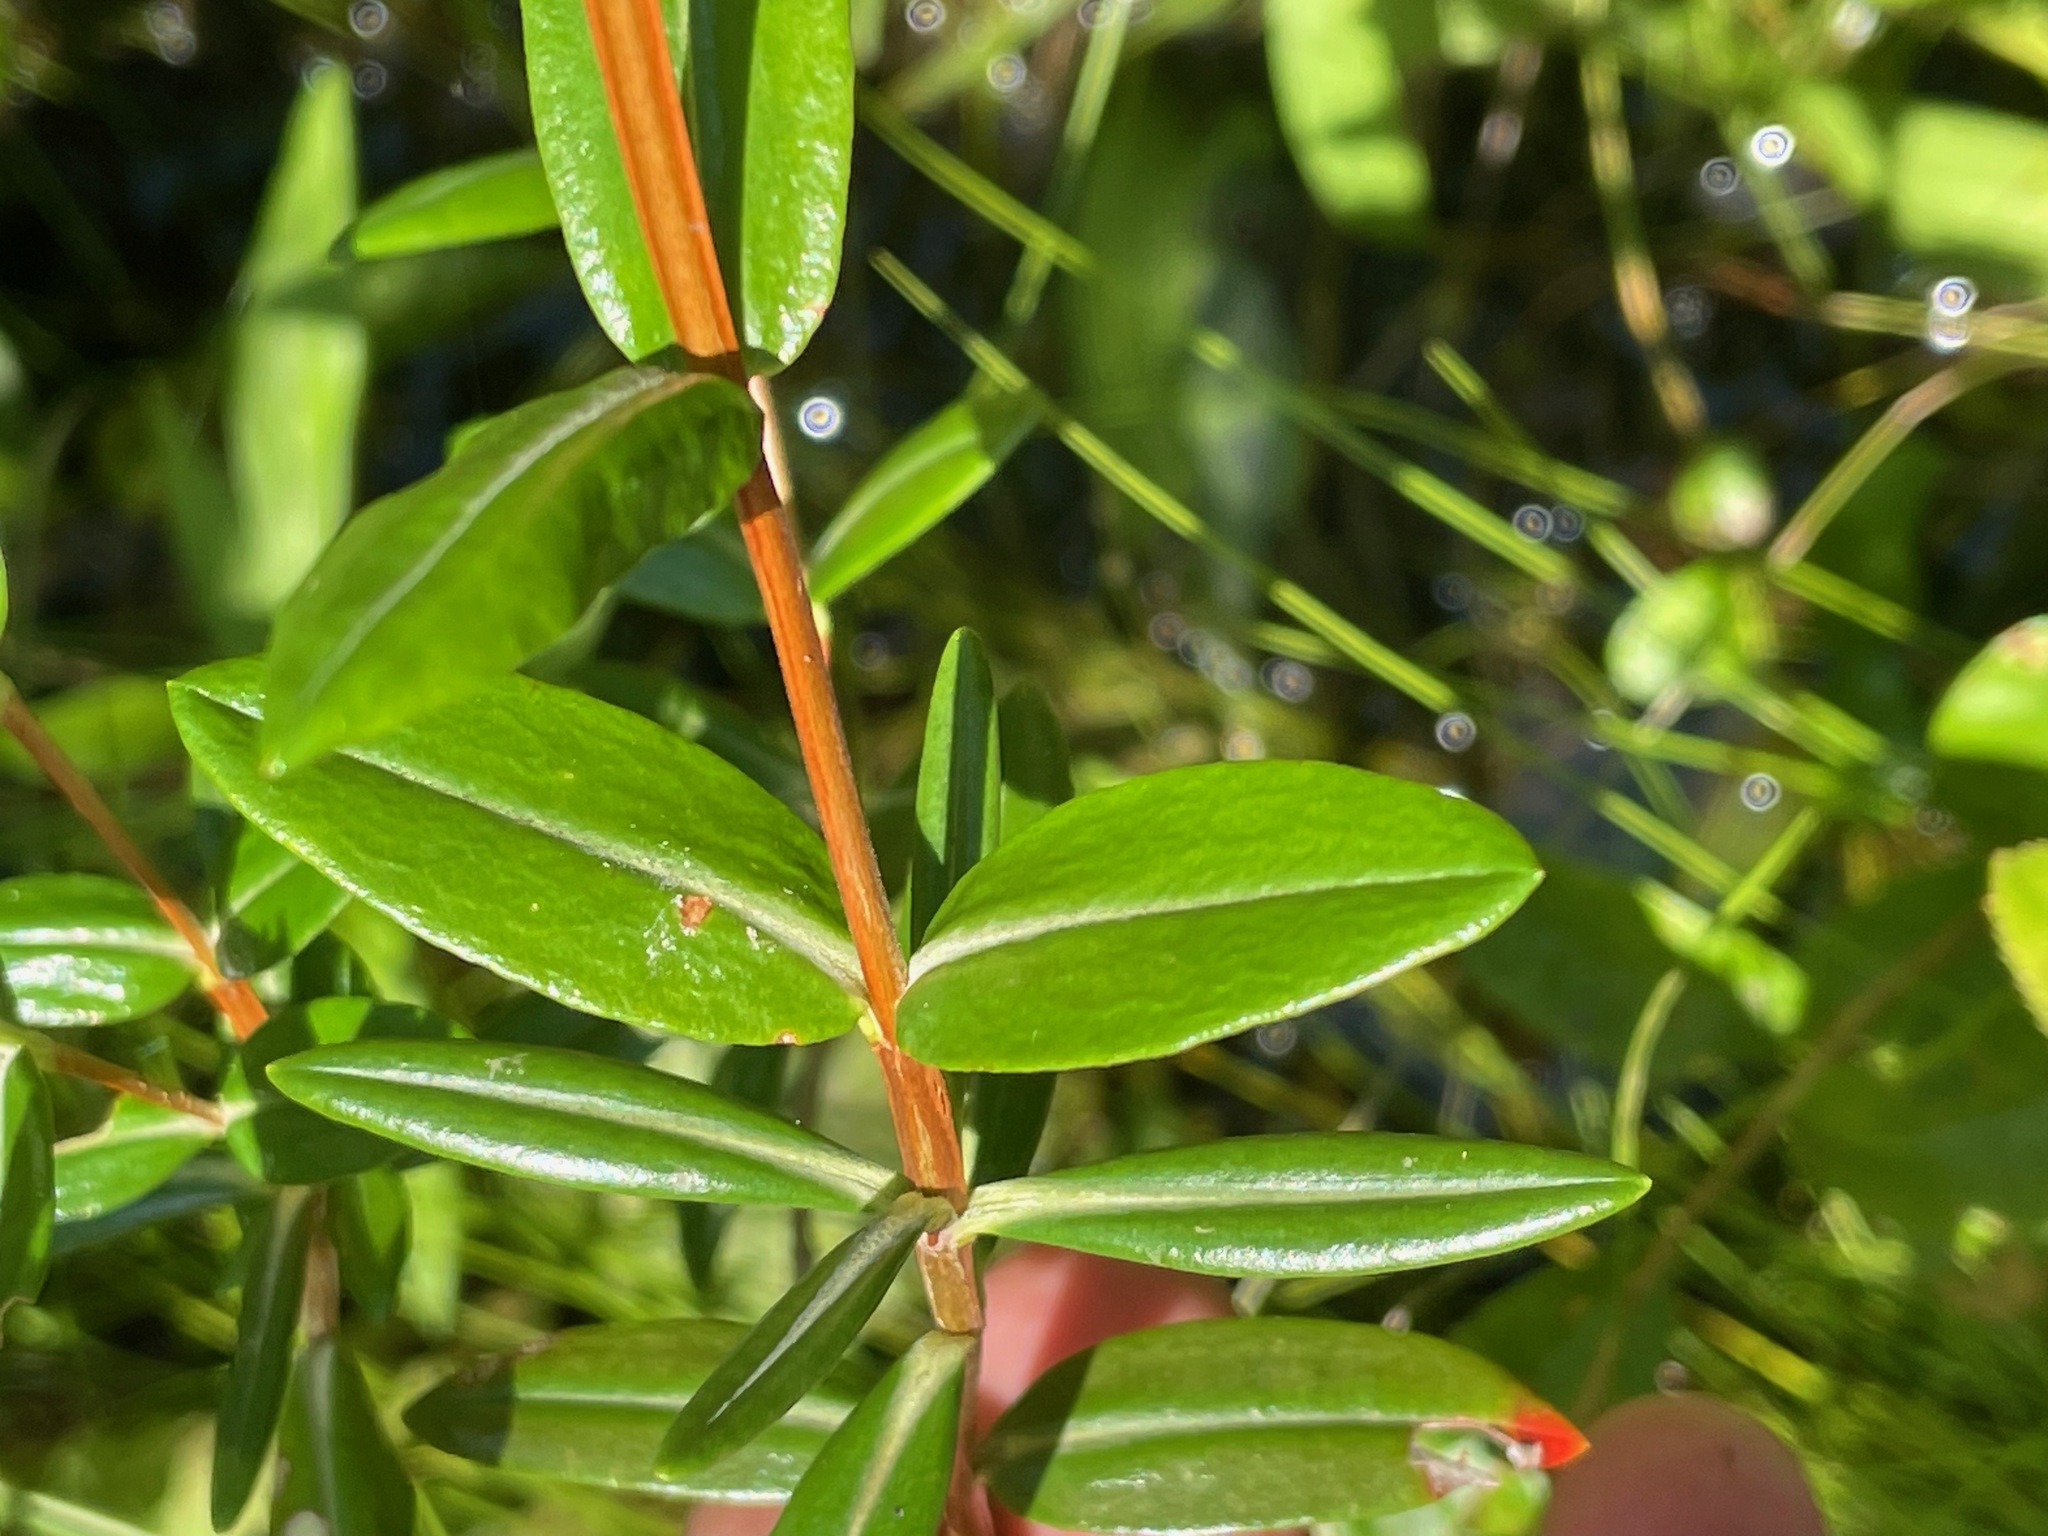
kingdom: Plantae
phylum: Tracheophyta
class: Magnoliopsida
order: Ericales
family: Ericaceae
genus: Kalmia
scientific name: Kalmia polifolia
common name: Bog-laurel
